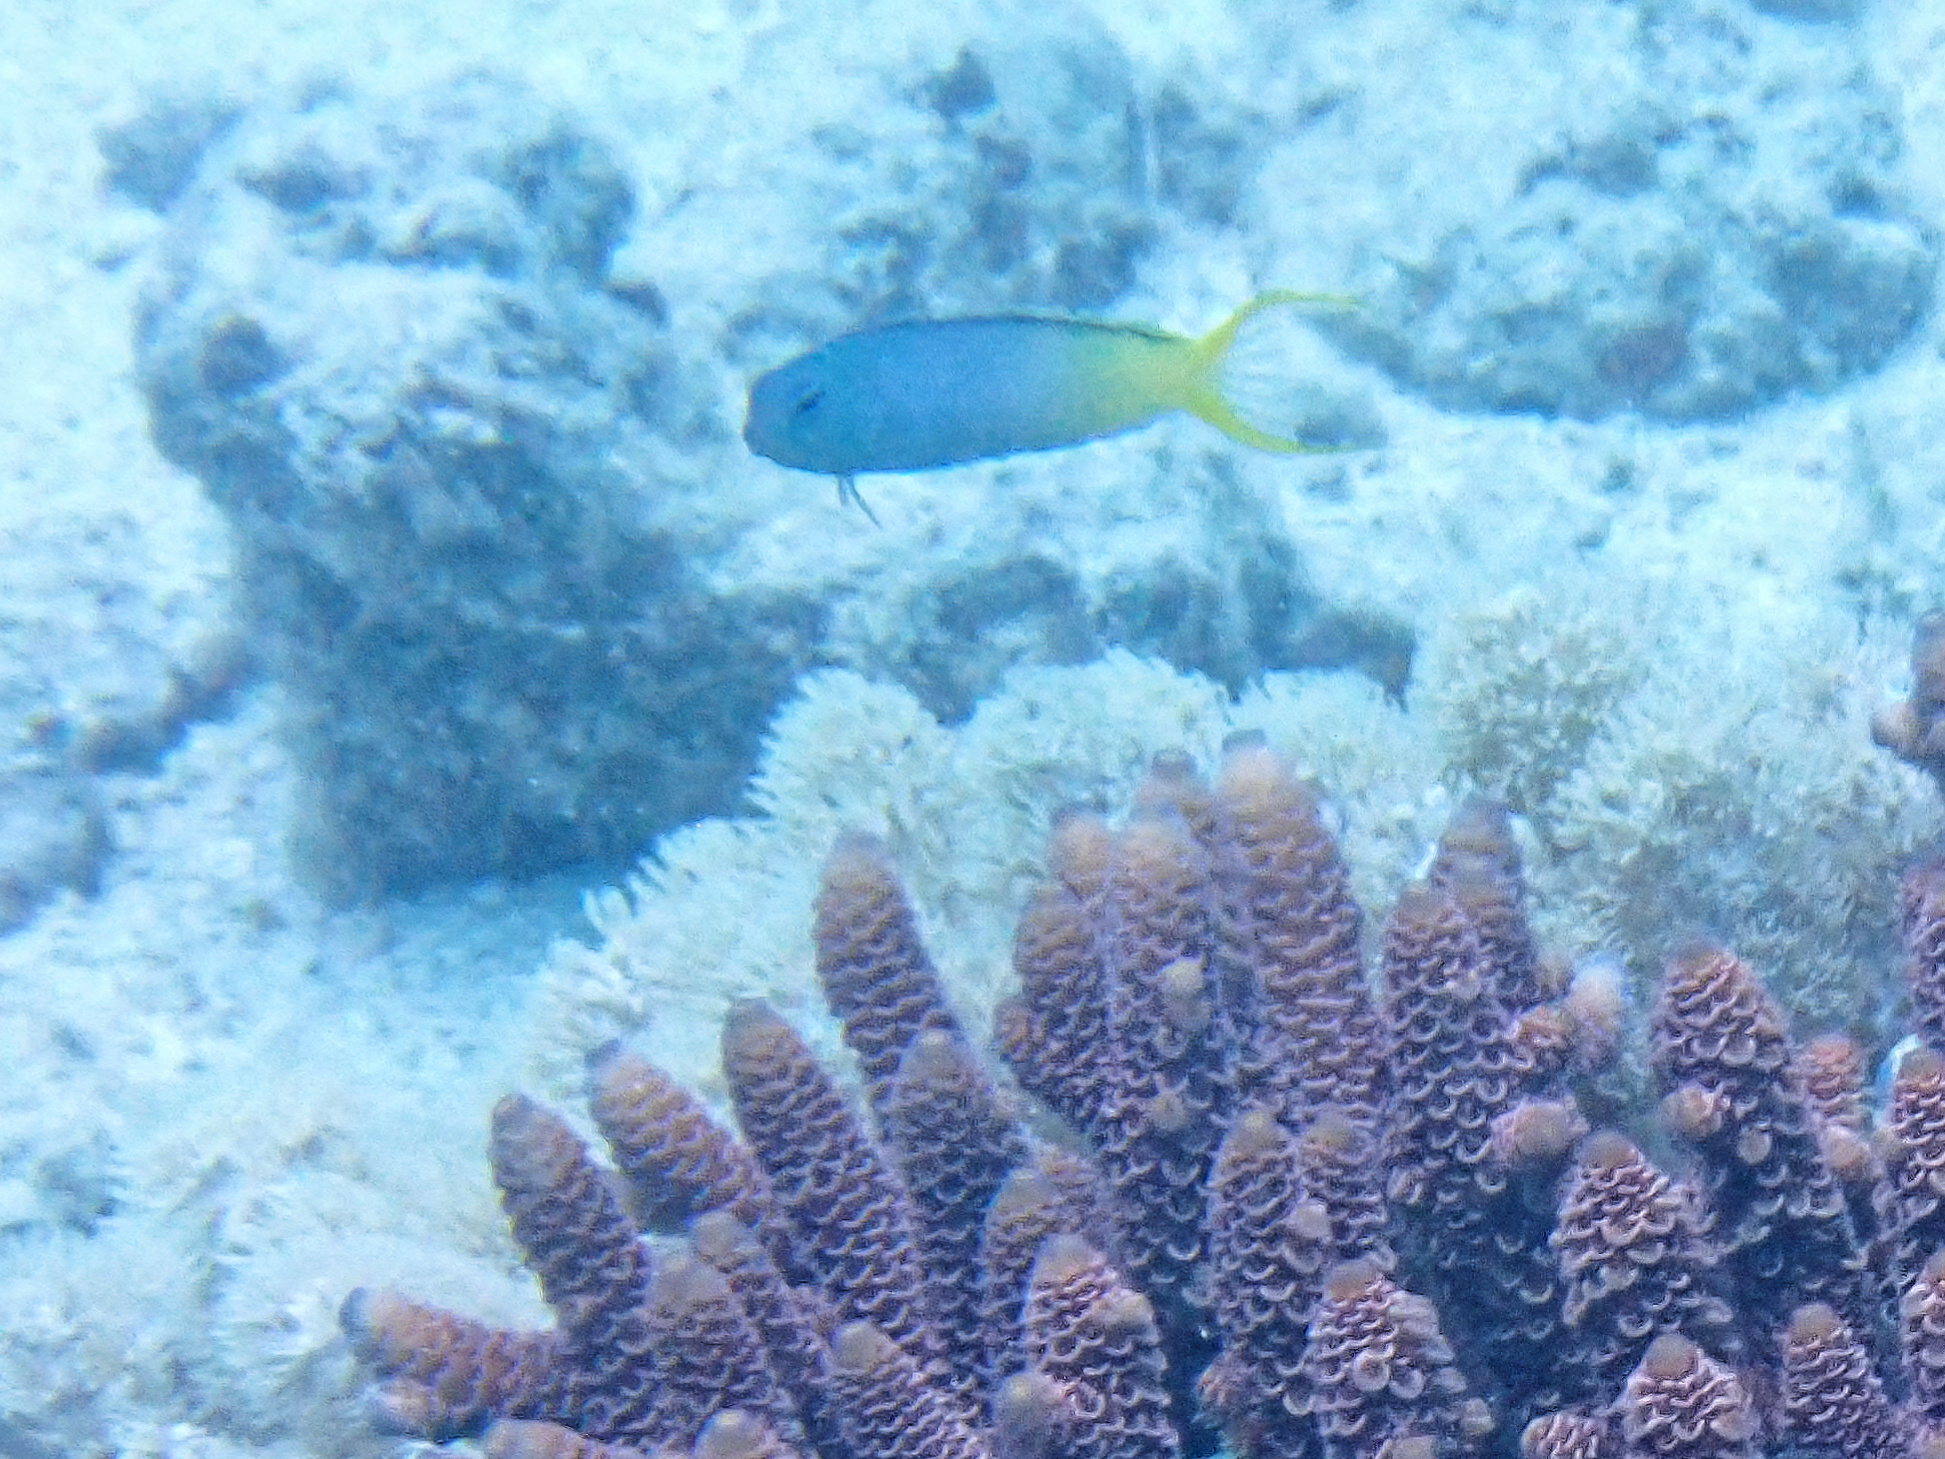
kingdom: Animalia
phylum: Chordata
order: Perciformes
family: Blenniidae
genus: Meiacanthus
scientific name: Meiacanthus atrodorsalis
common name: Eye-lash harptail-blenny
